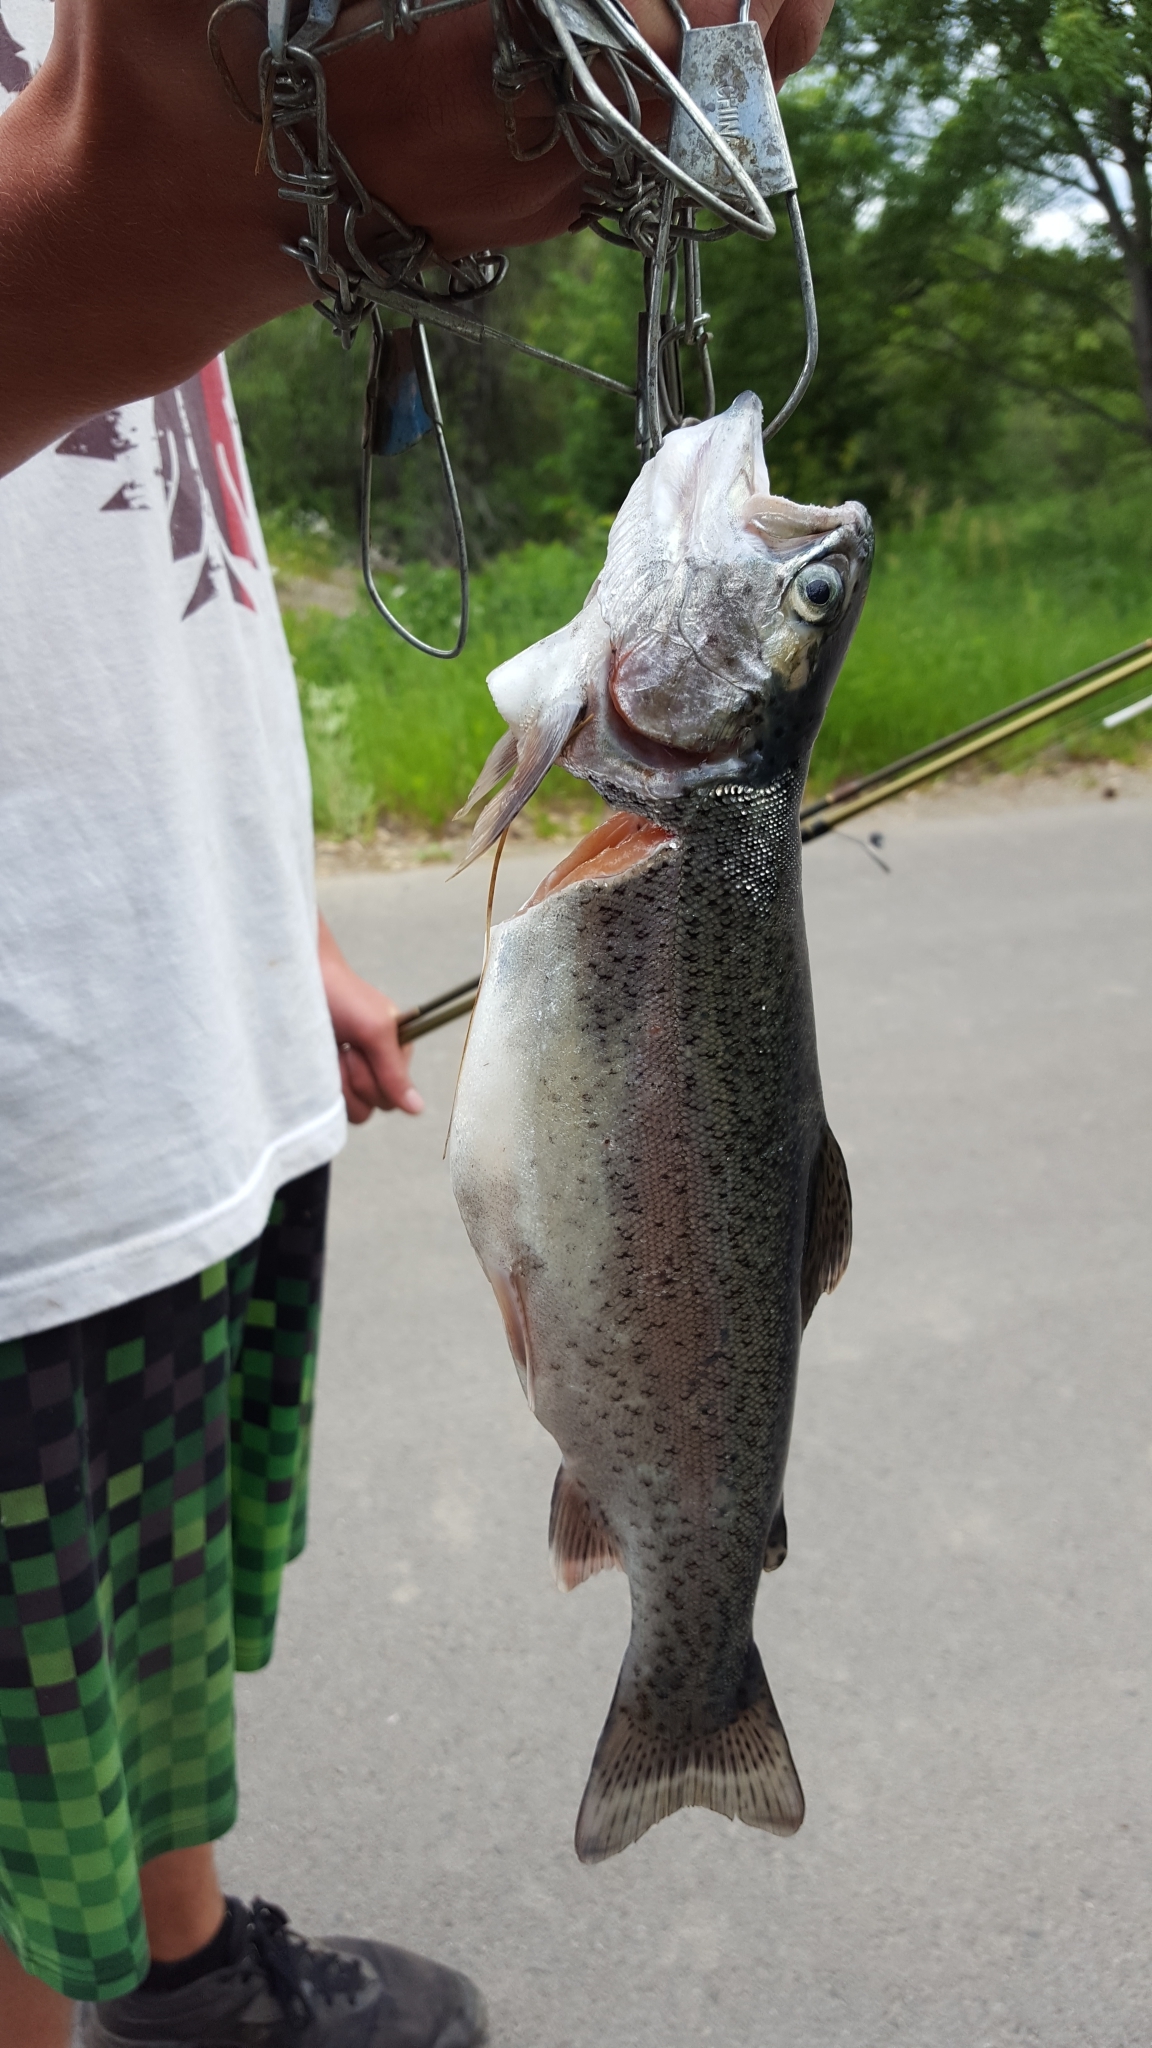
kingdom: Animalia
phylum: Chordata
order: Salmoniformes
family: Salmonidae
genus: Oncorhynchus
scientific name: Oncorhynchus mykiss
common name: Rainbow trout
